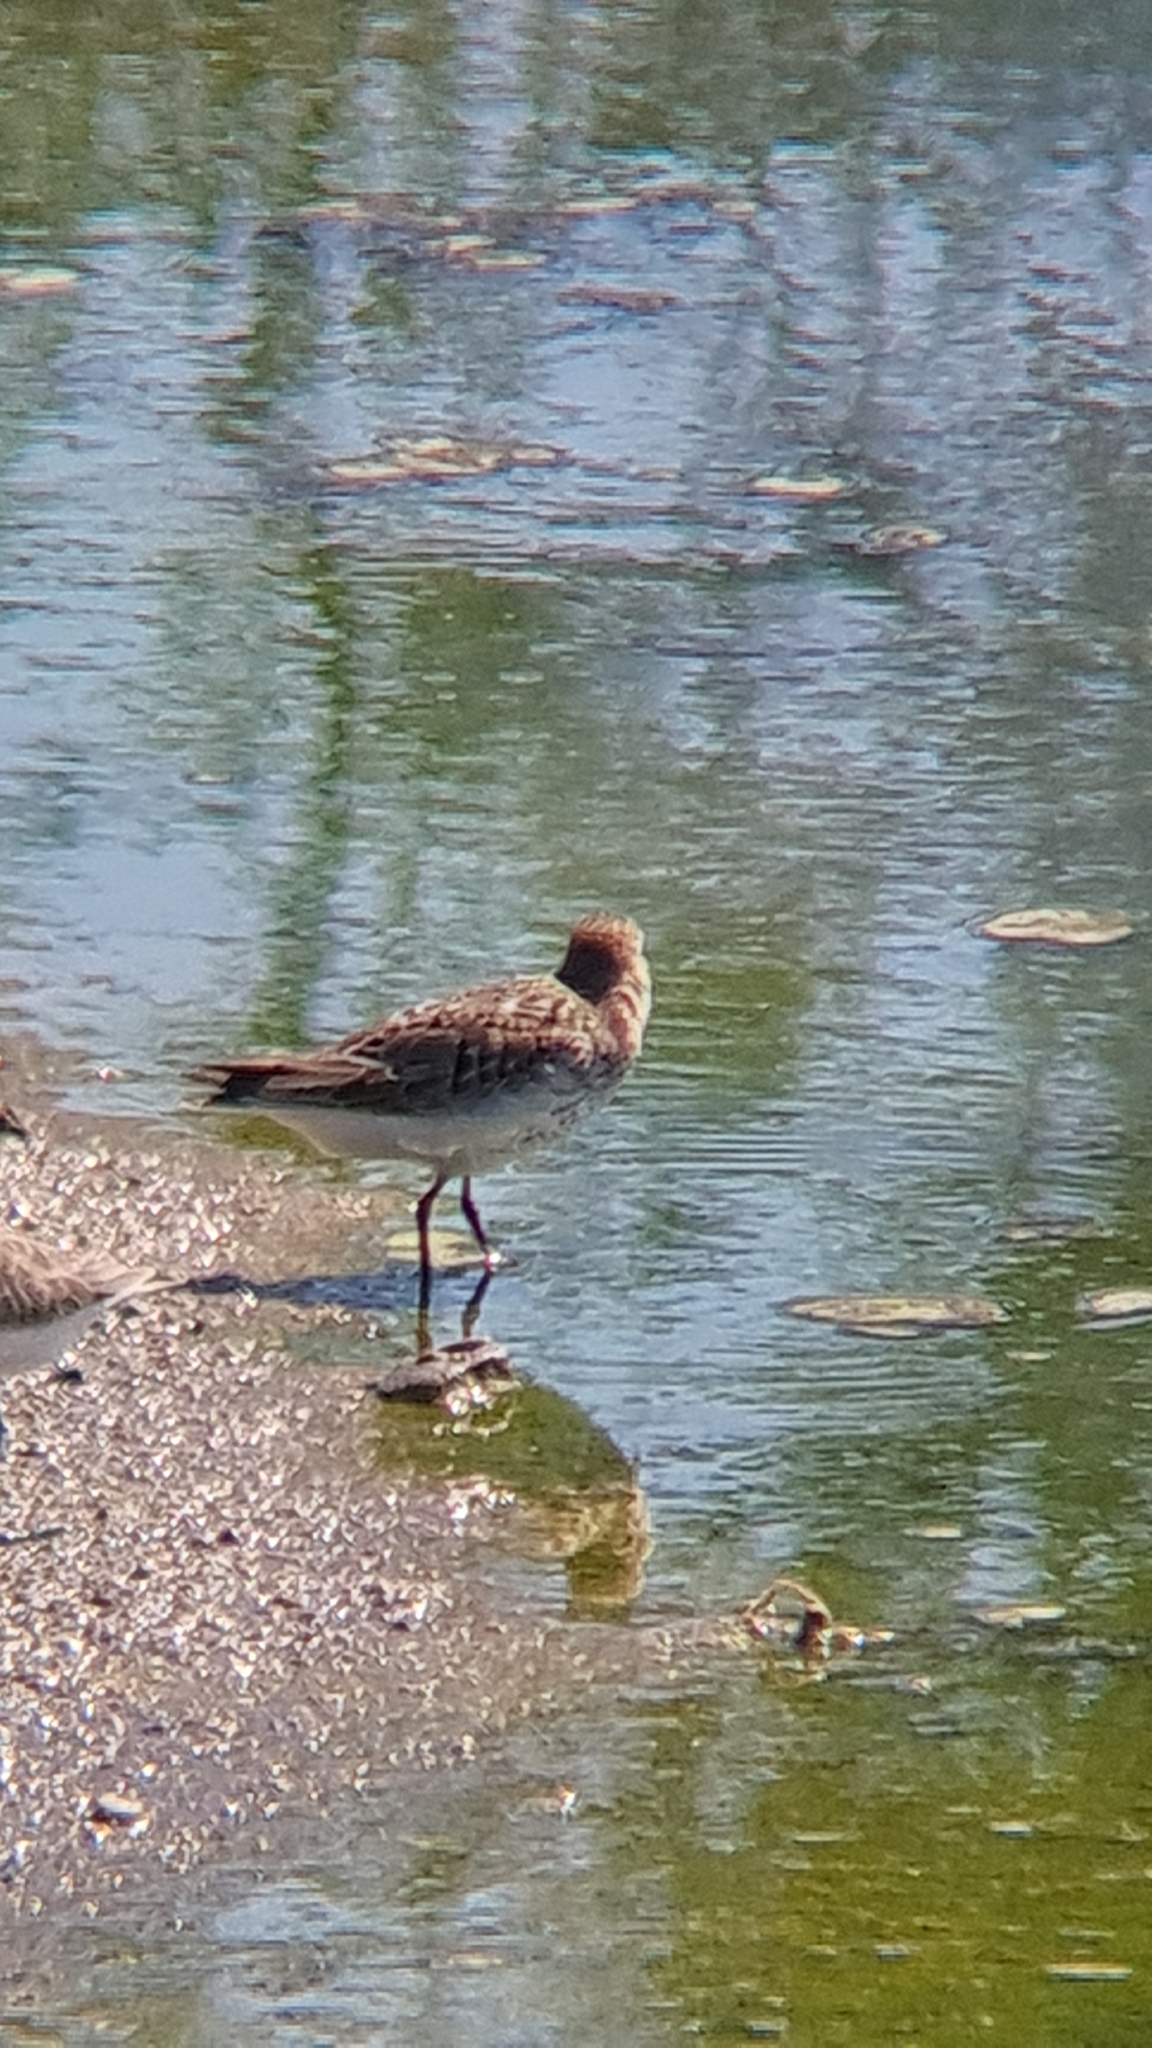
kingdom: Animalia
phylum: Chordata
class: Aves
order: Charadriiformes
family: Scolopacidae
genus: Calidris
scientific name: Calidris alpina
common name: Dunlin
